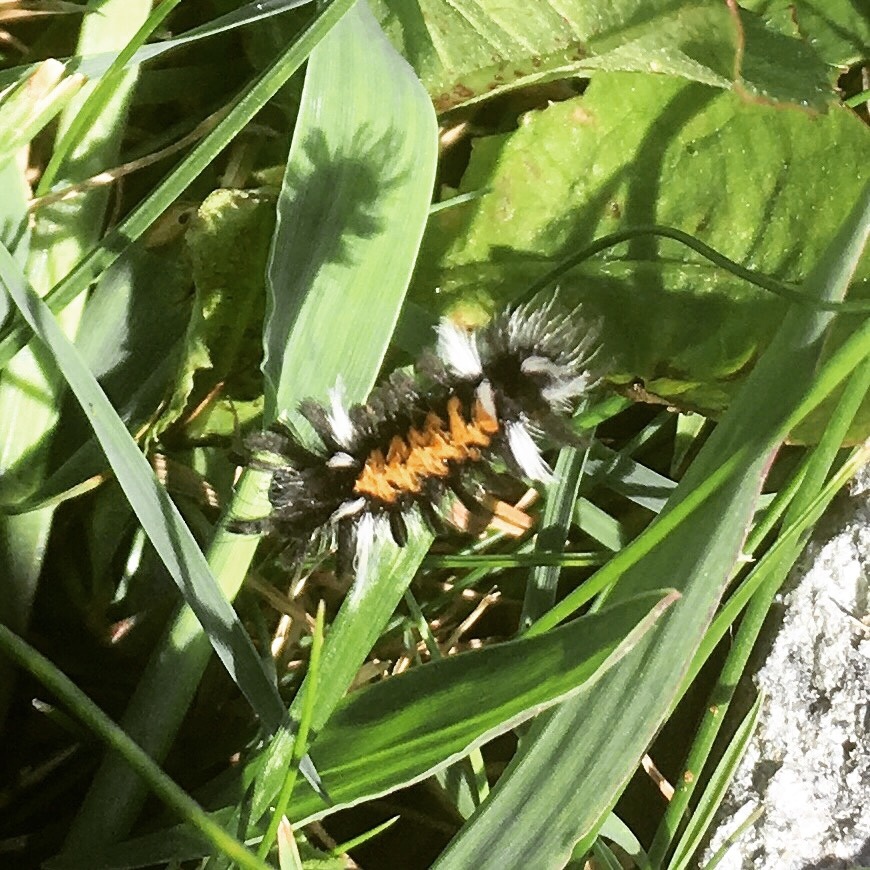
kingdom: Animalia
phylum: Arthropoda
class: Insecta
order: Lepidoptera
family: Erebidae
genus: Euchaetes
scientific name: Euchaetes egle
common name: Milkweed tussock moth
